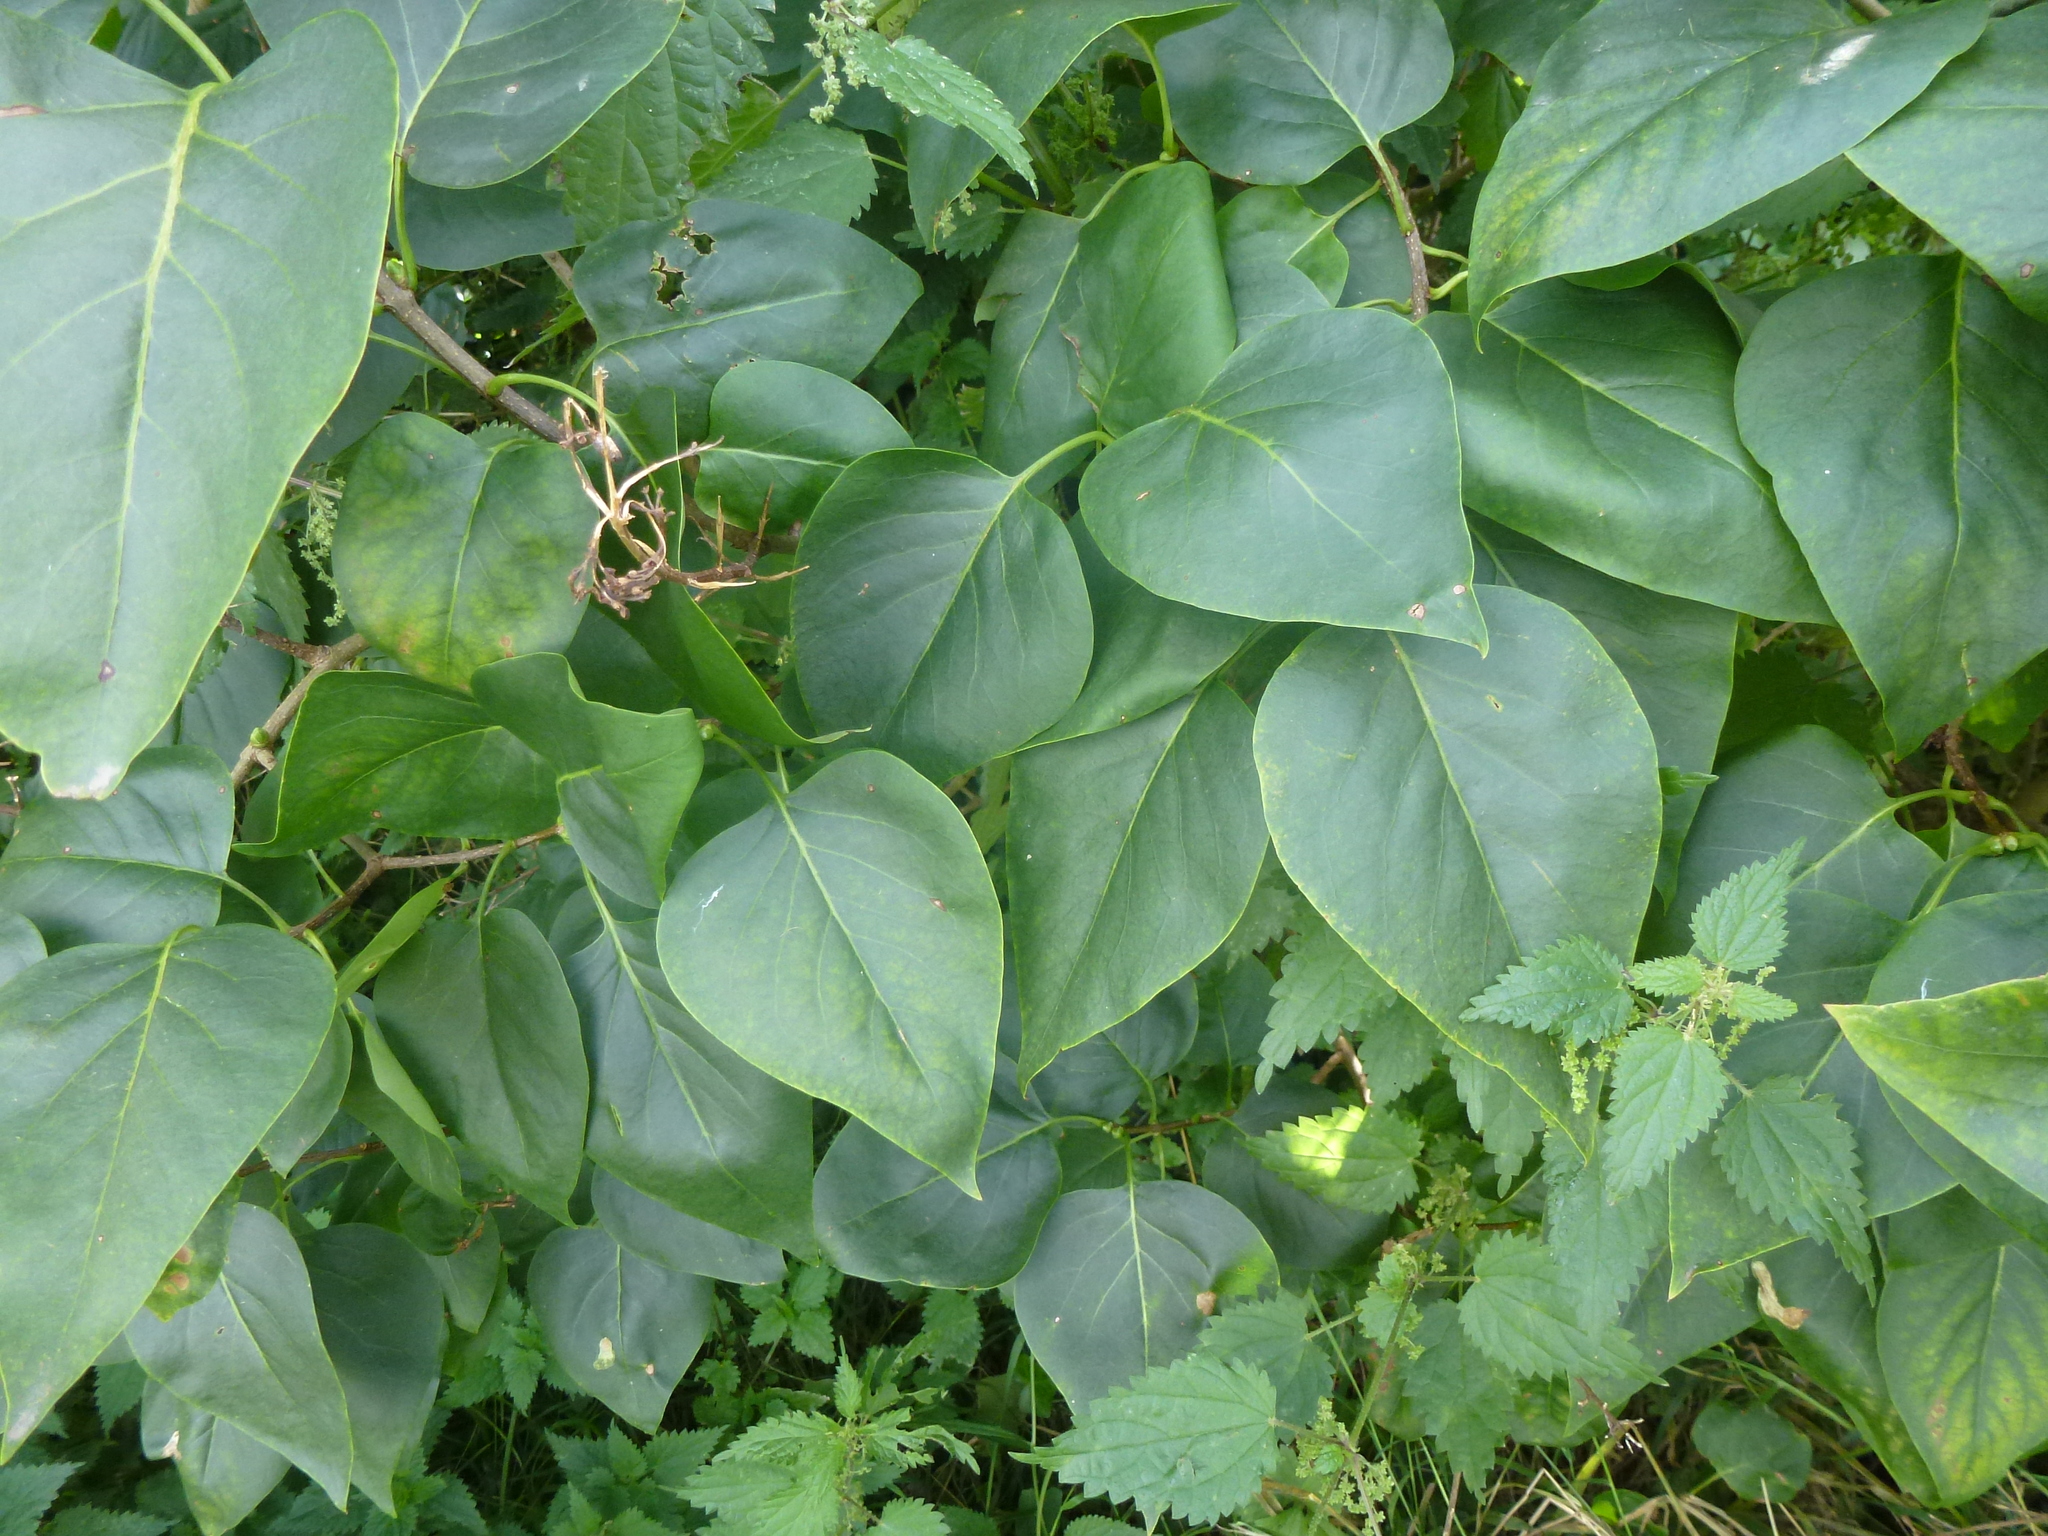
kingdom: Plantae
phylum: Tracheophyta
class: Magnoliopsida
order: Lamiales
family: Oleaceae
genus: Syringa
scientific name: Syringa vulgaris
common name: Common lilac
